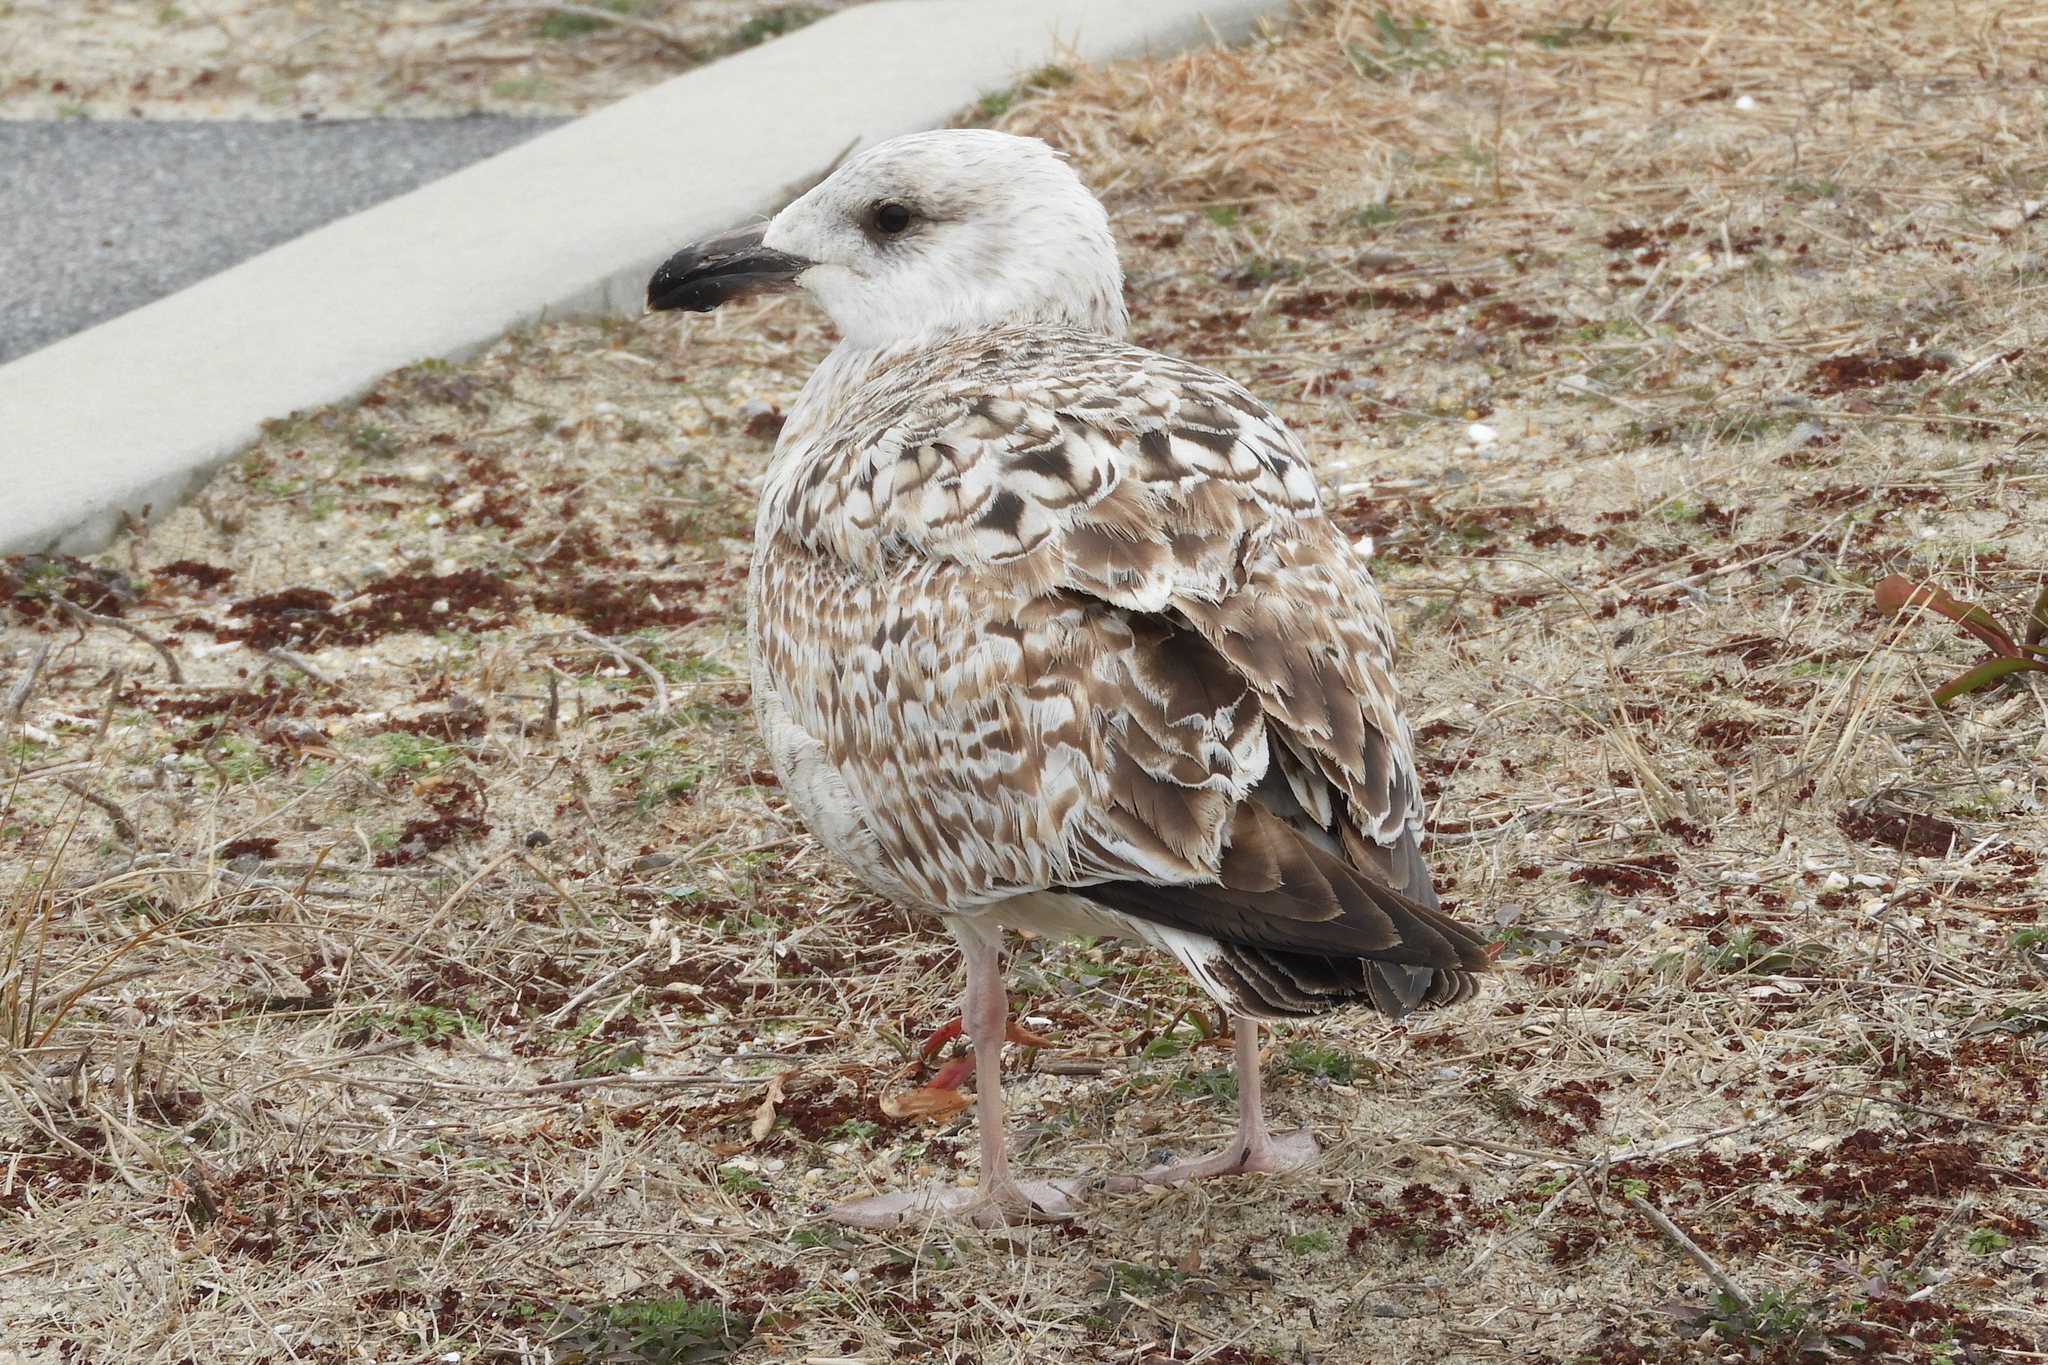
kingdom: Animalia
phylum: Chordata
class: Aves
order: Charadriiformes
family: Laridae
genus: Larus
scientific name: Larus marinus
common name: Great black-backed gull
